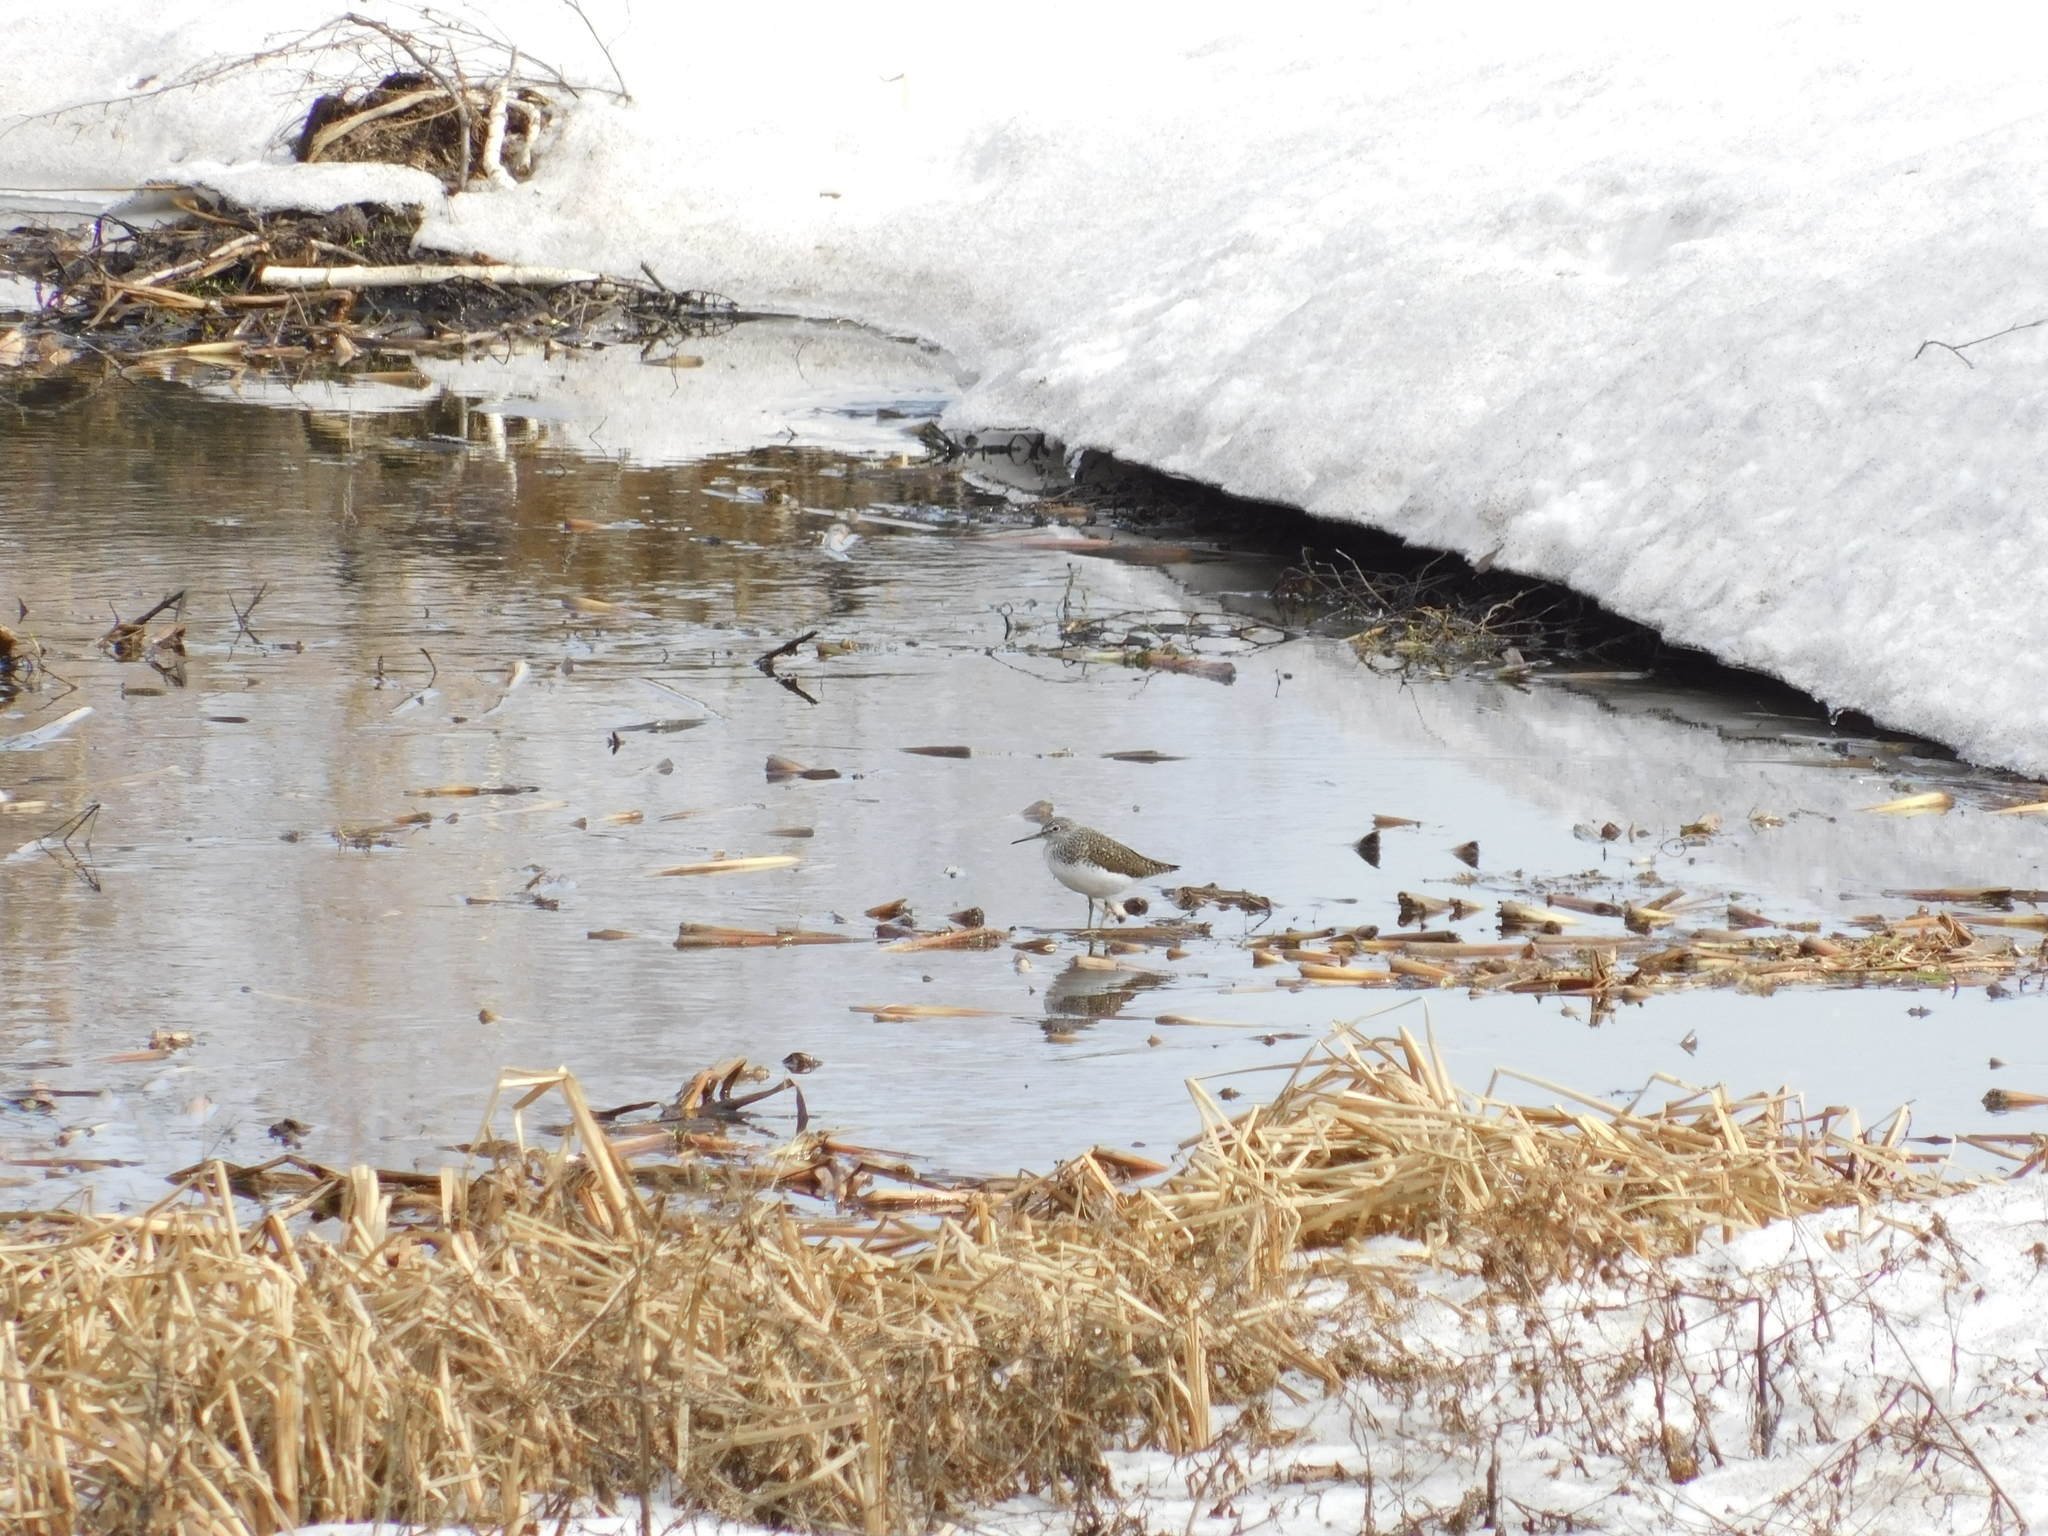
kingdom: Animalia
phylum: Chordata
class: Aves
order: Charadriiformes
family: Scolopacidae
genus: Tringa
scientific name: Tringa ochropus
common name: Green sandpiper
